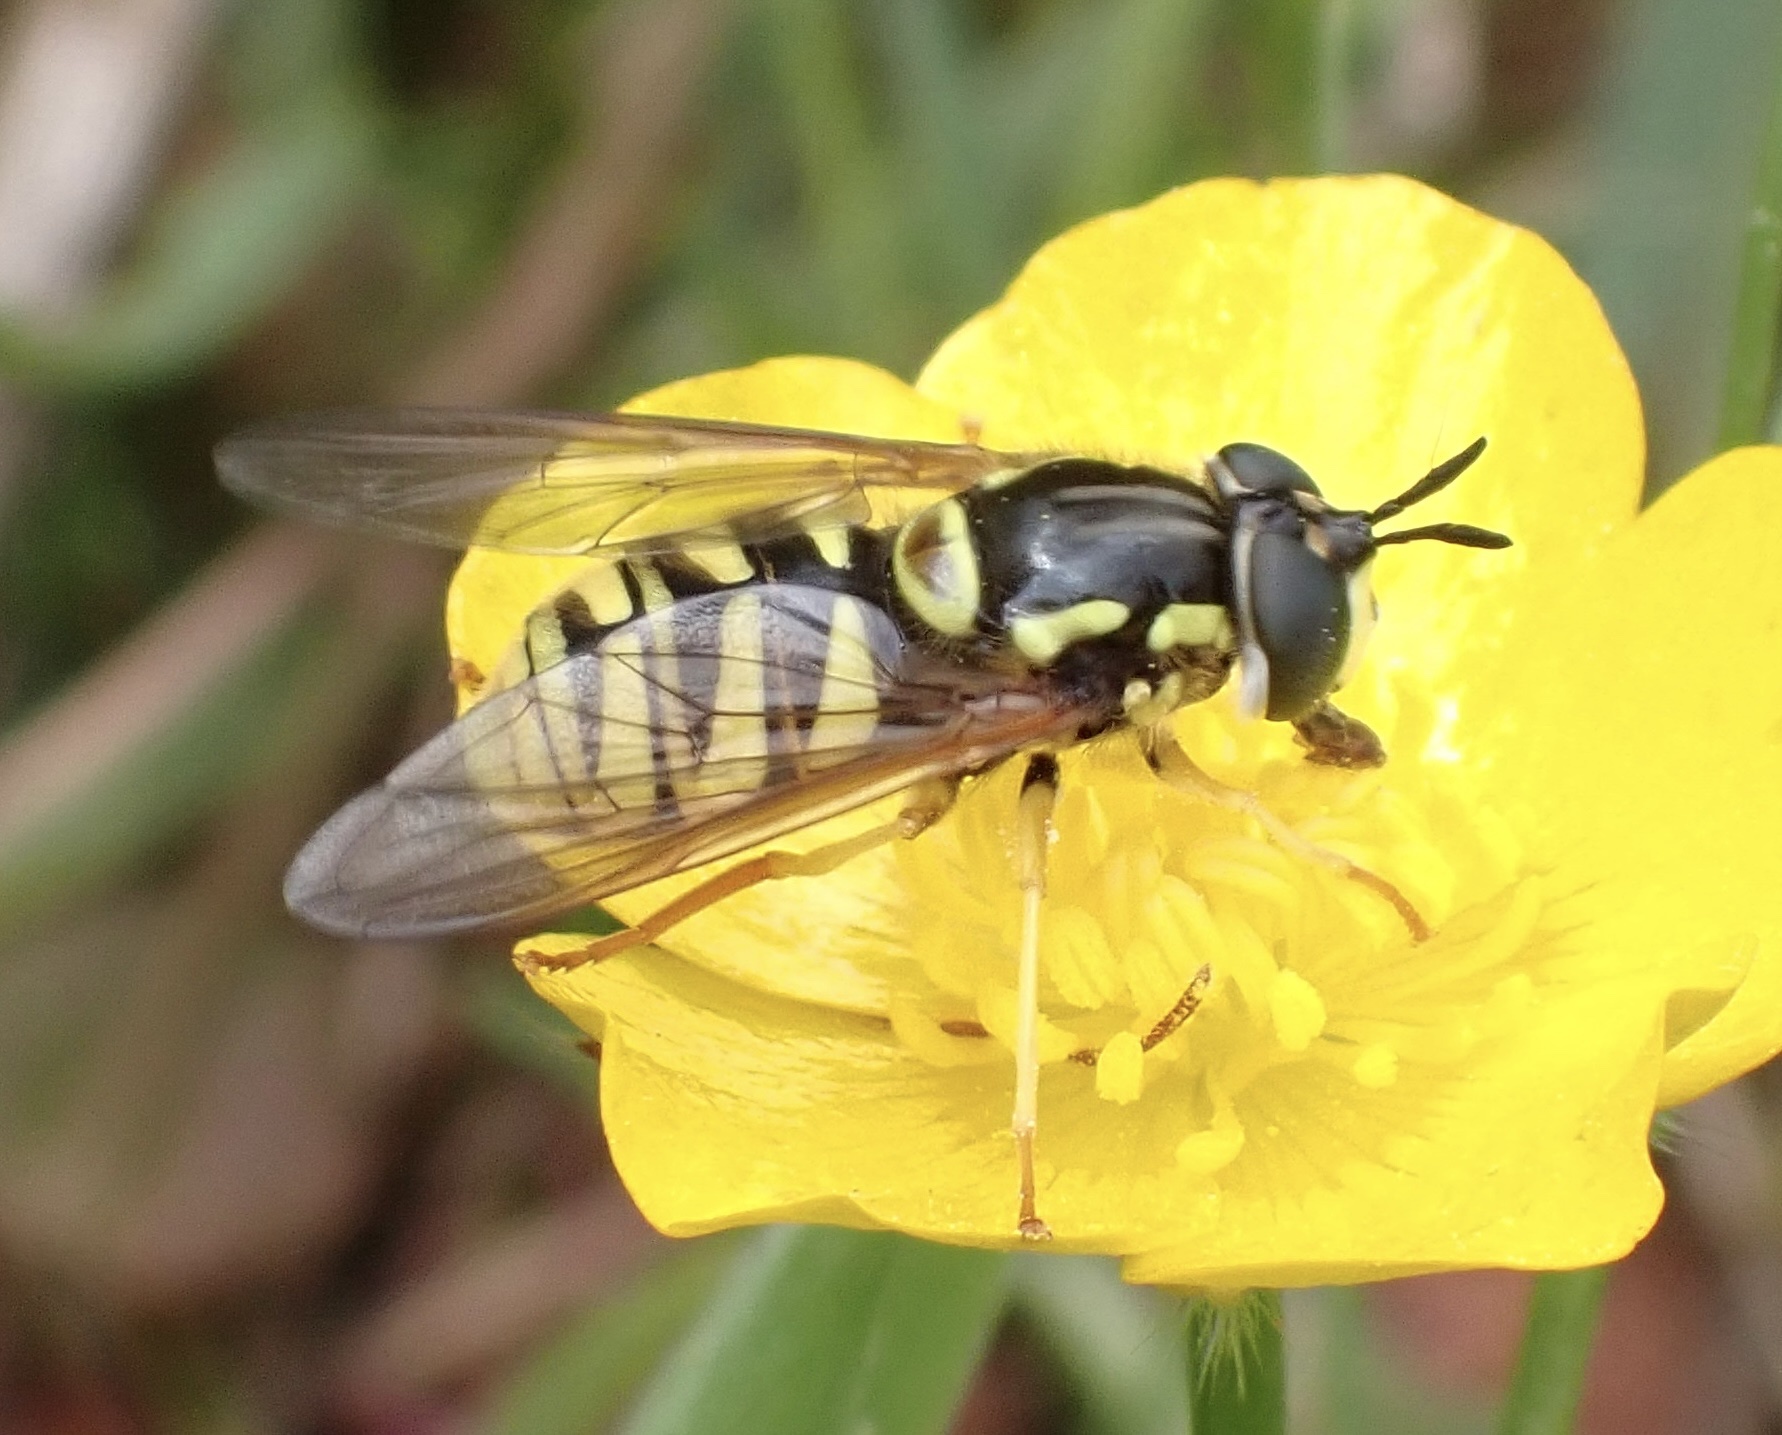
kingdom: Animalia
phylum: Arthropoda
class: Insecta
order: Diptera
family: Syrphidae
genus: Chrysotoxum
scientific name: Chrysotoxum cautum
